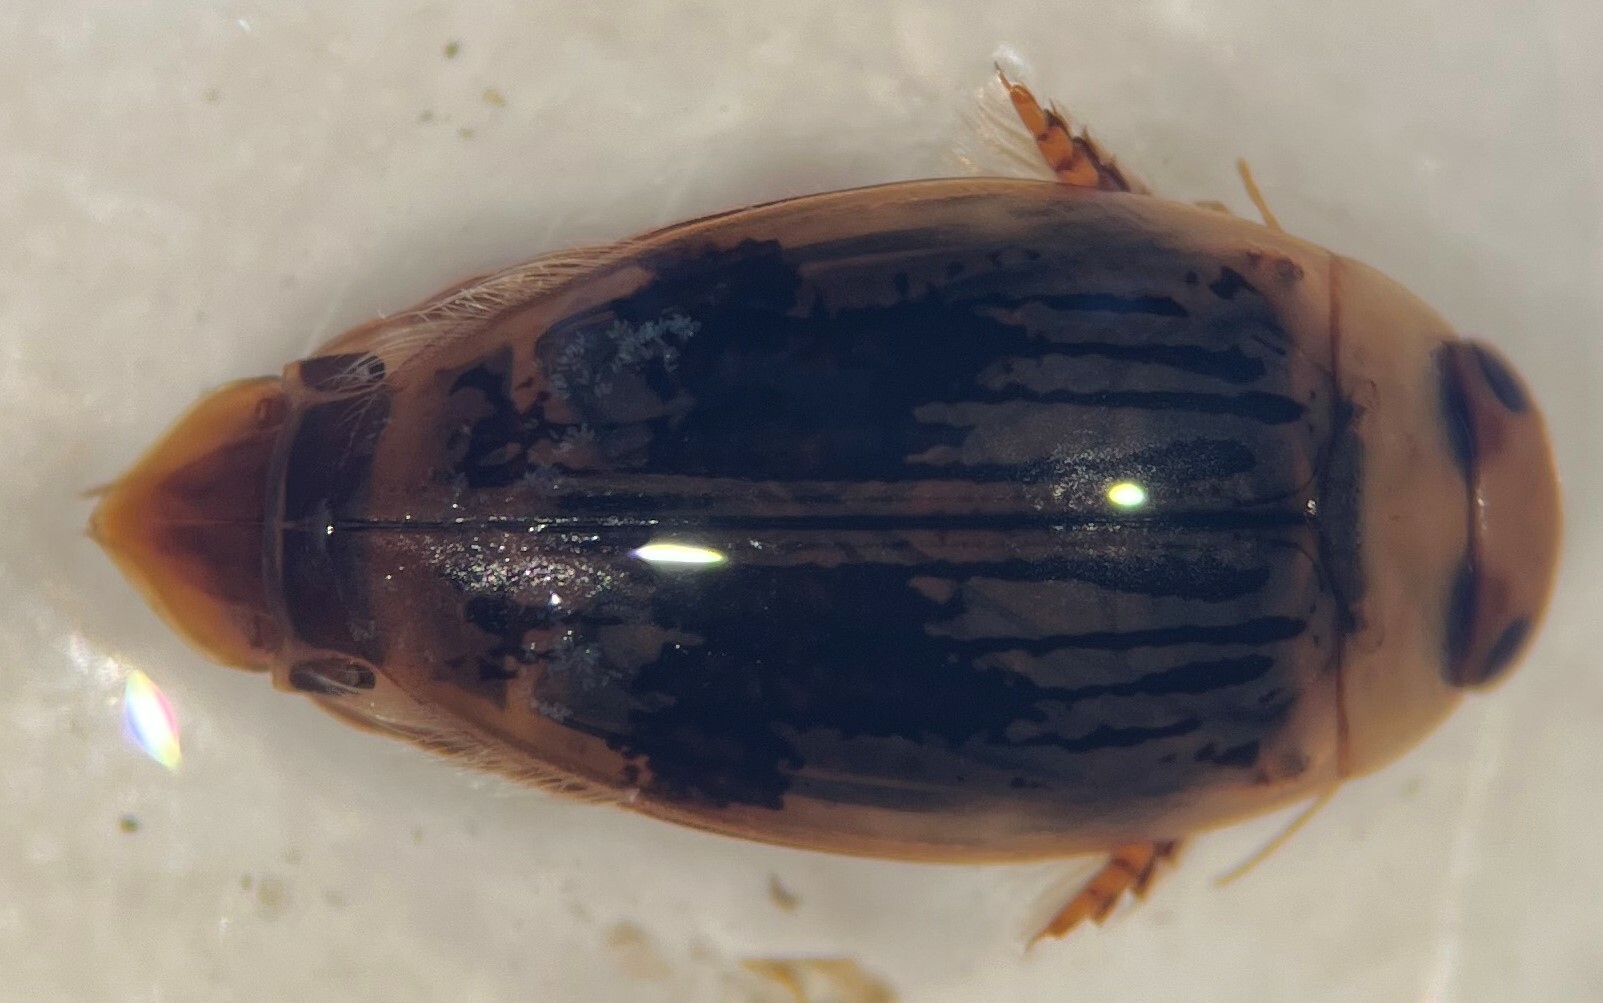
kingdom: Animalia
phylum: Arthropoda
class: Insecta
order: Coleoptera
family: Dytiscidae
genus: Laccophilus
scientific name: Laccophilus quadrilineatus
